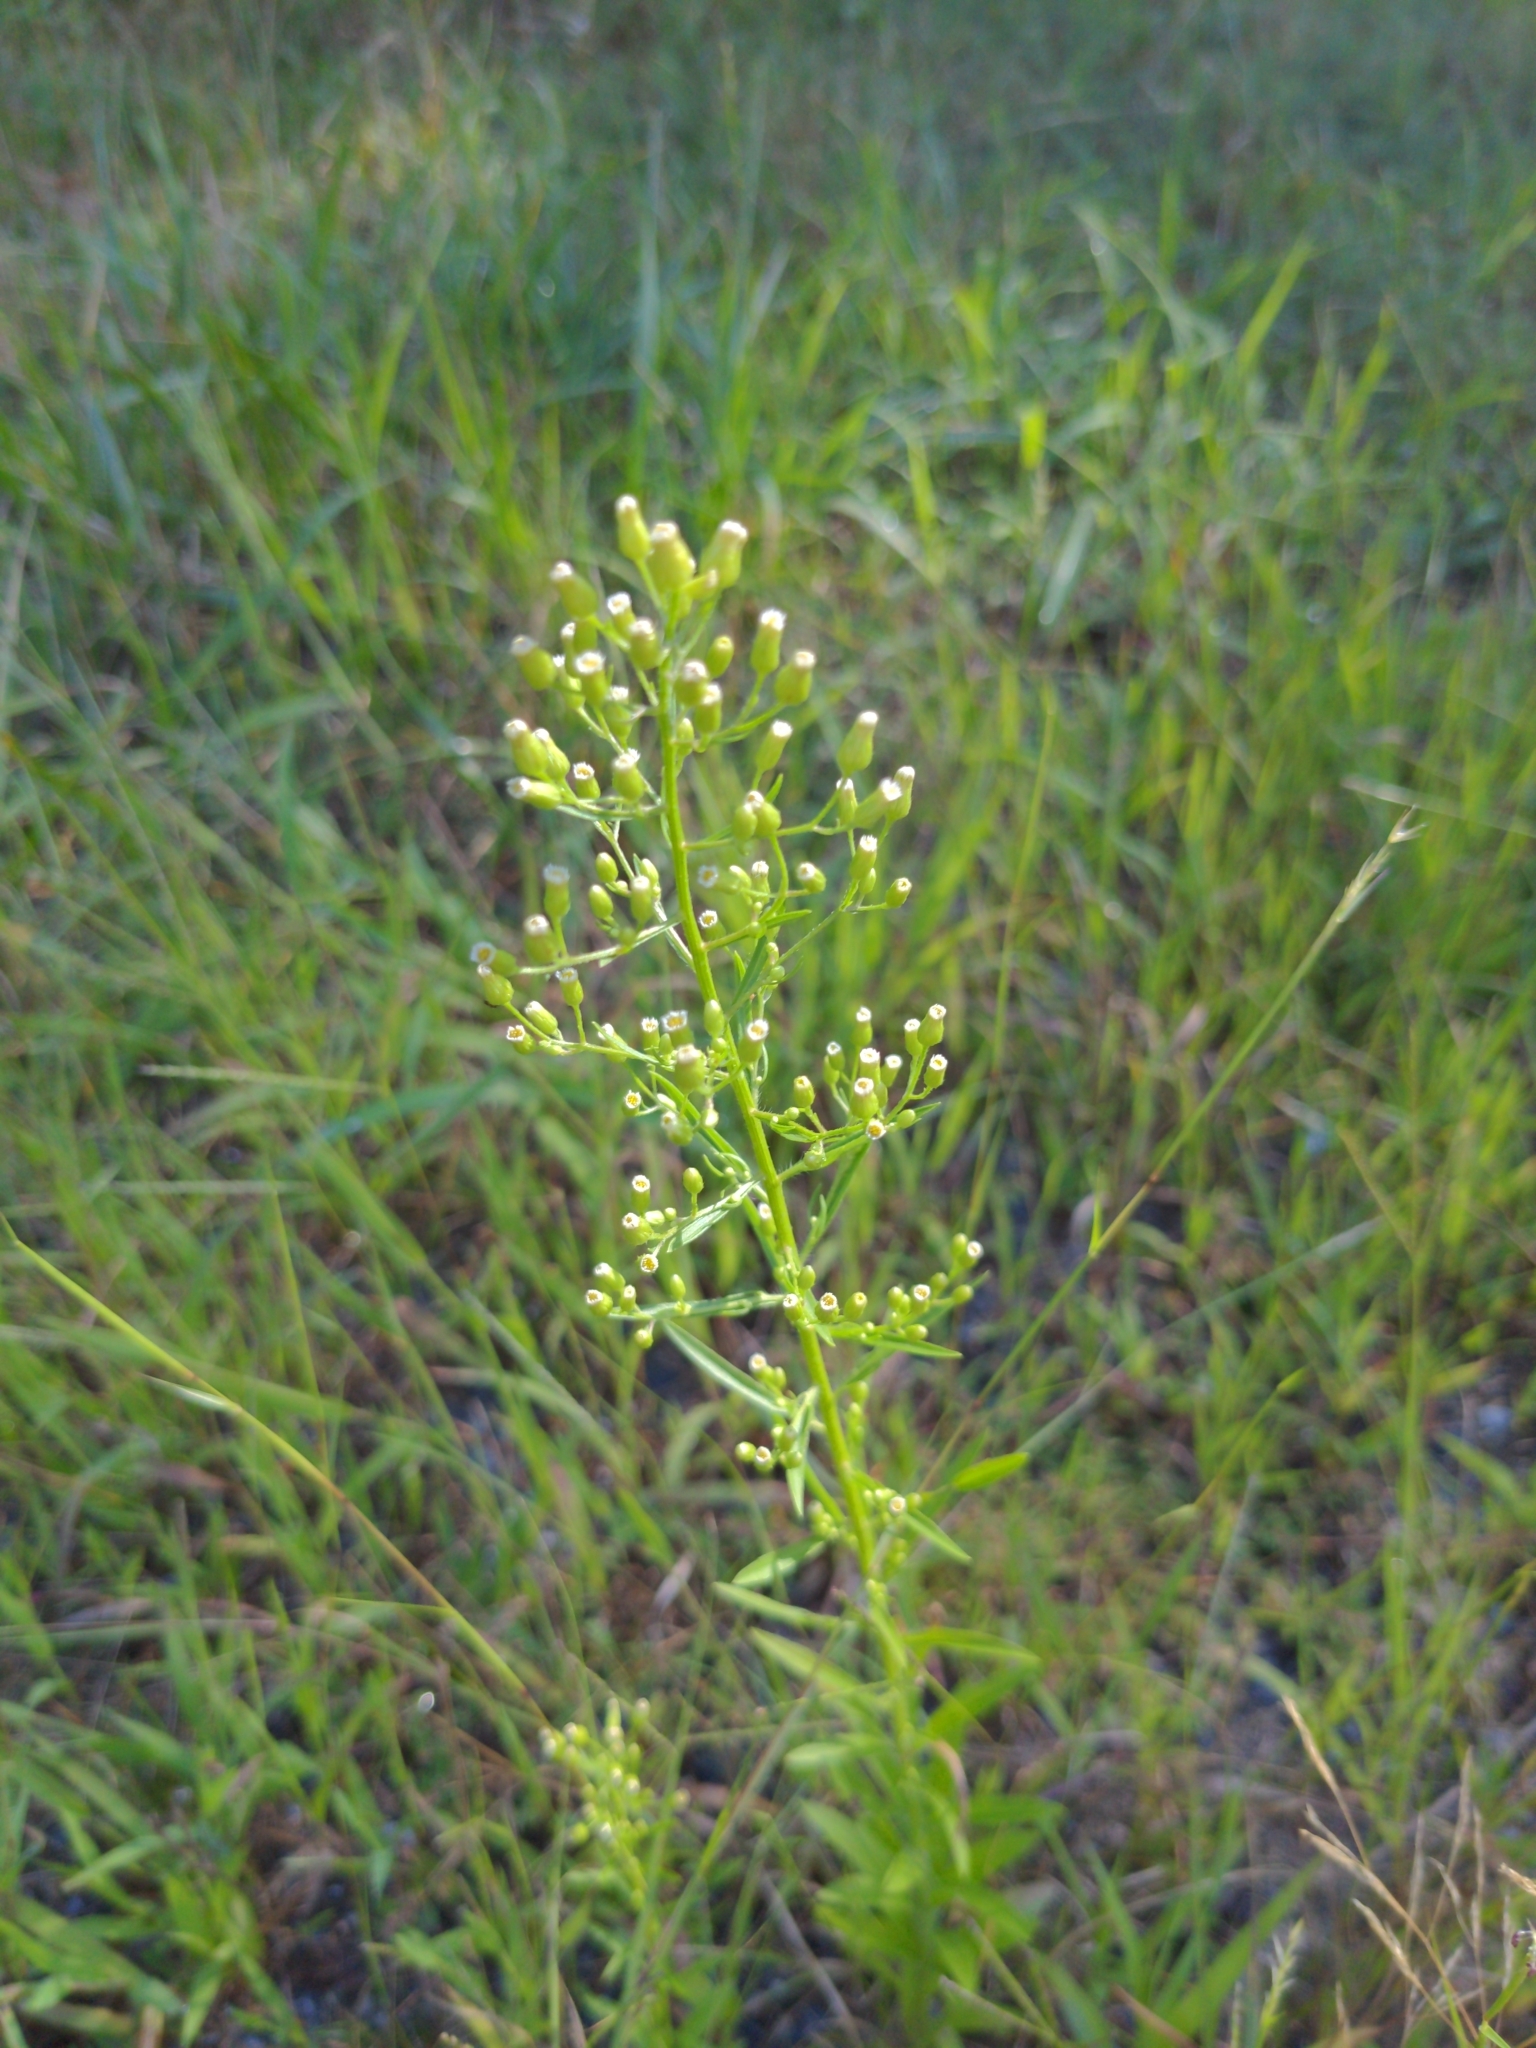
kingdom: Plantae
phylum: Tracheophyta
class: Magnoliopsida
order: Asterales
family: Asteraceae
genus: Erigeron
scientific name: Erigeron canadensis
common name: Canadian fleabane
